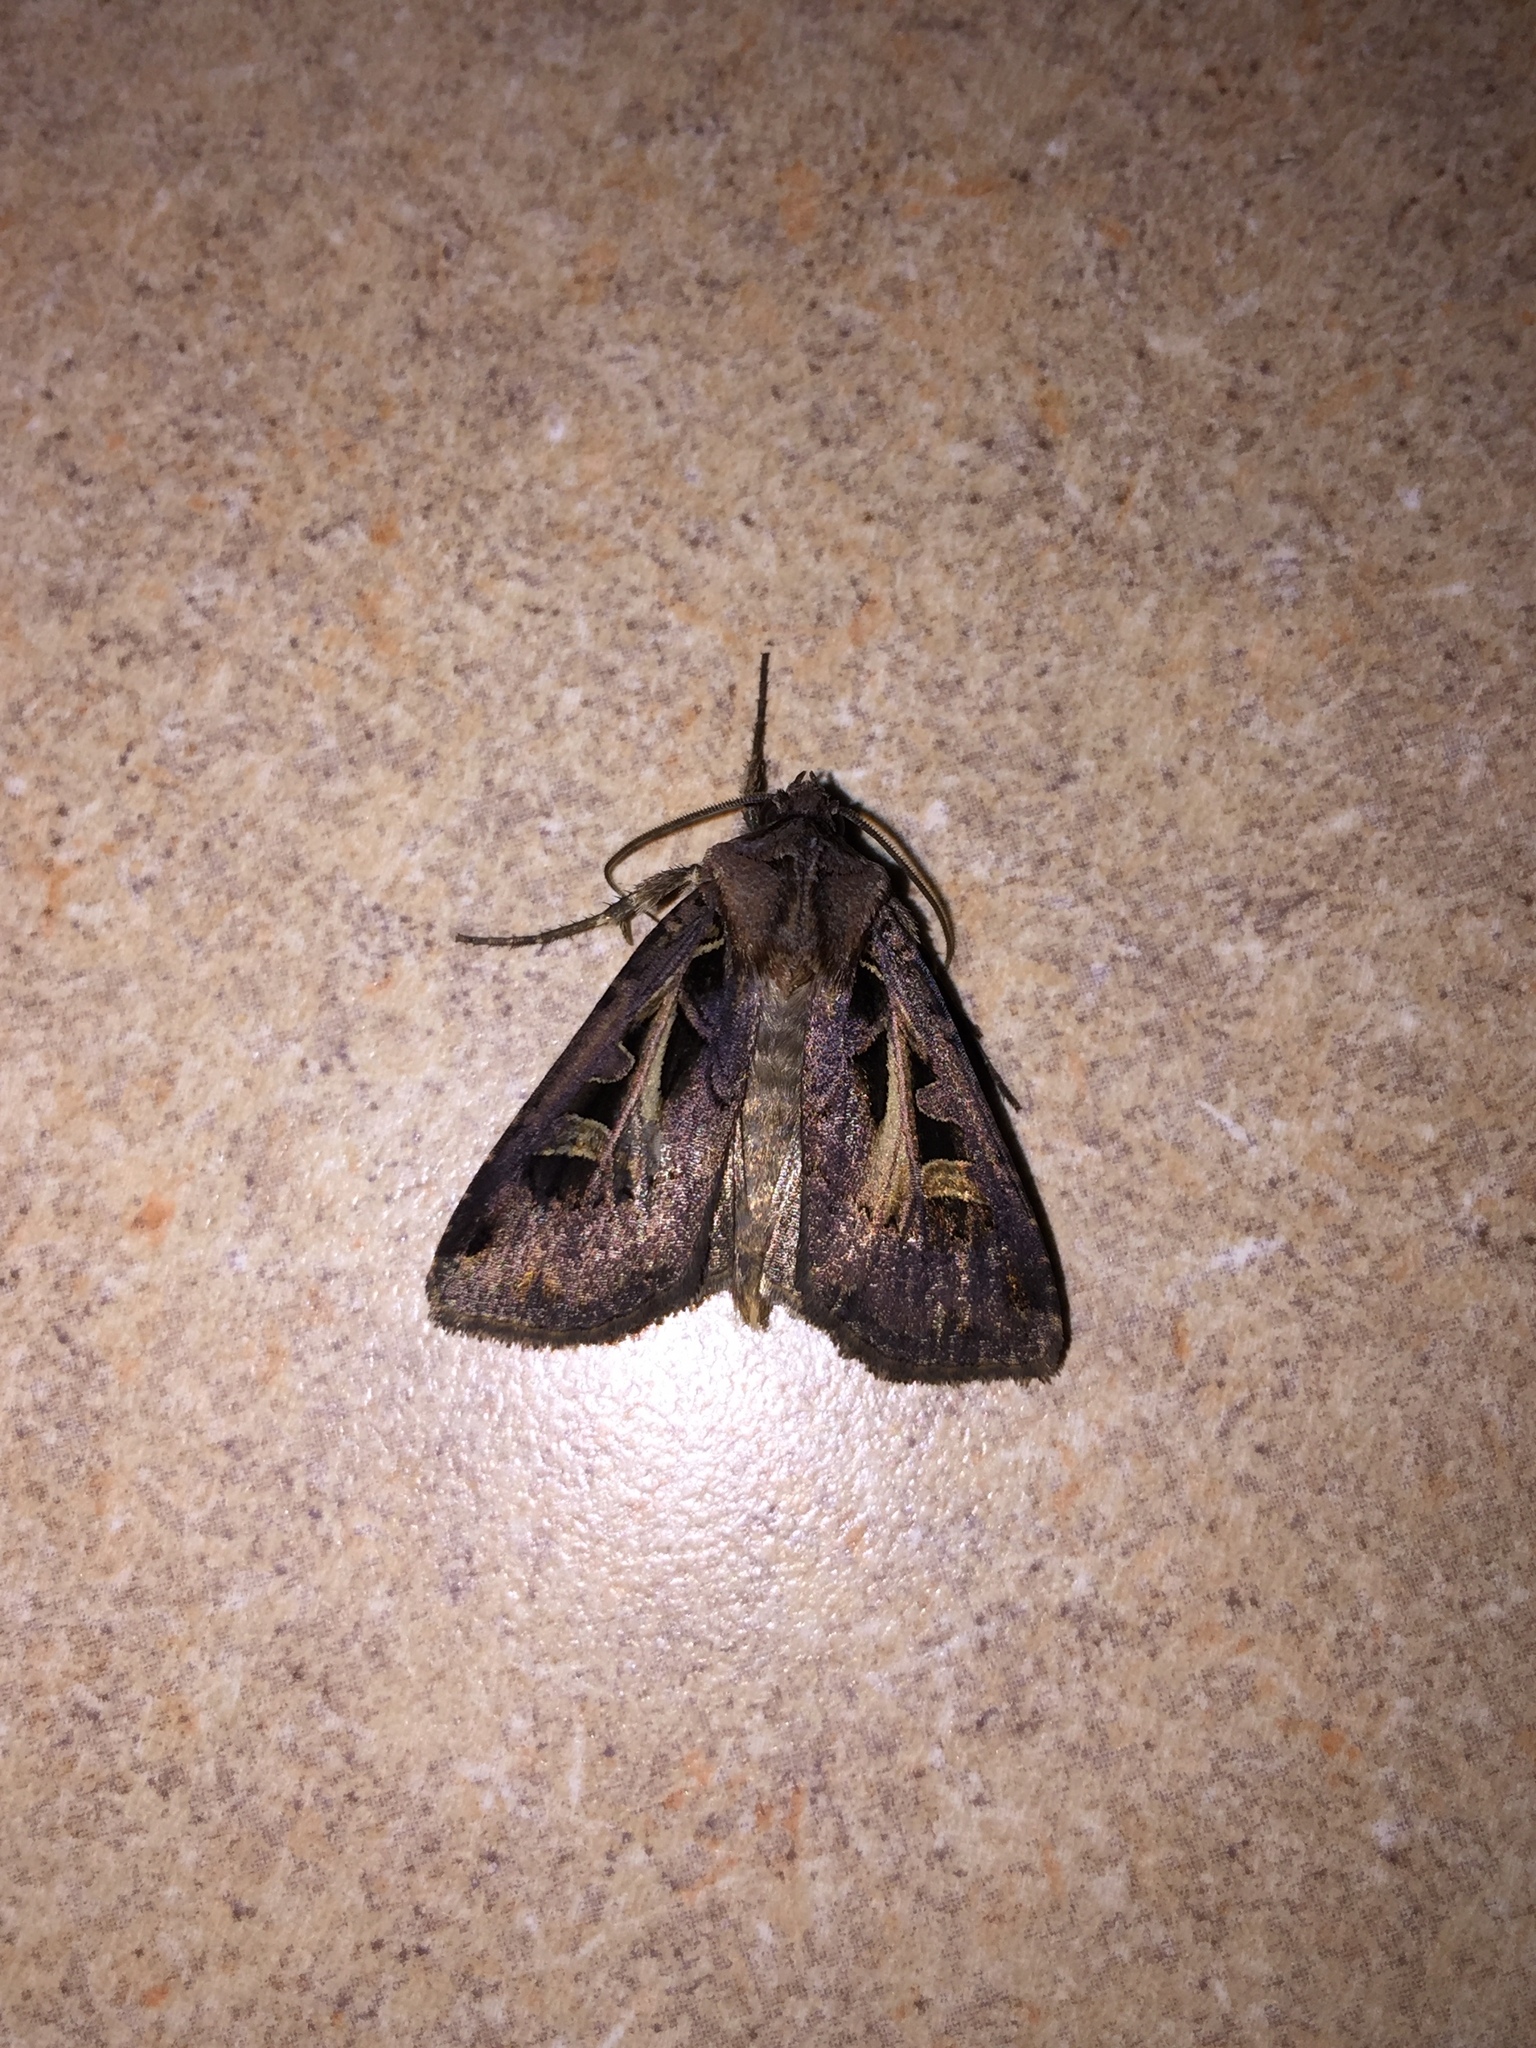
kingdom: Animalia
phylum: Arthropoda
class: Insecta
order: Lepidoptera
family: Noctuidae
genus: Feltia
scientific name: Feltia herilis
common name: Master's dart
